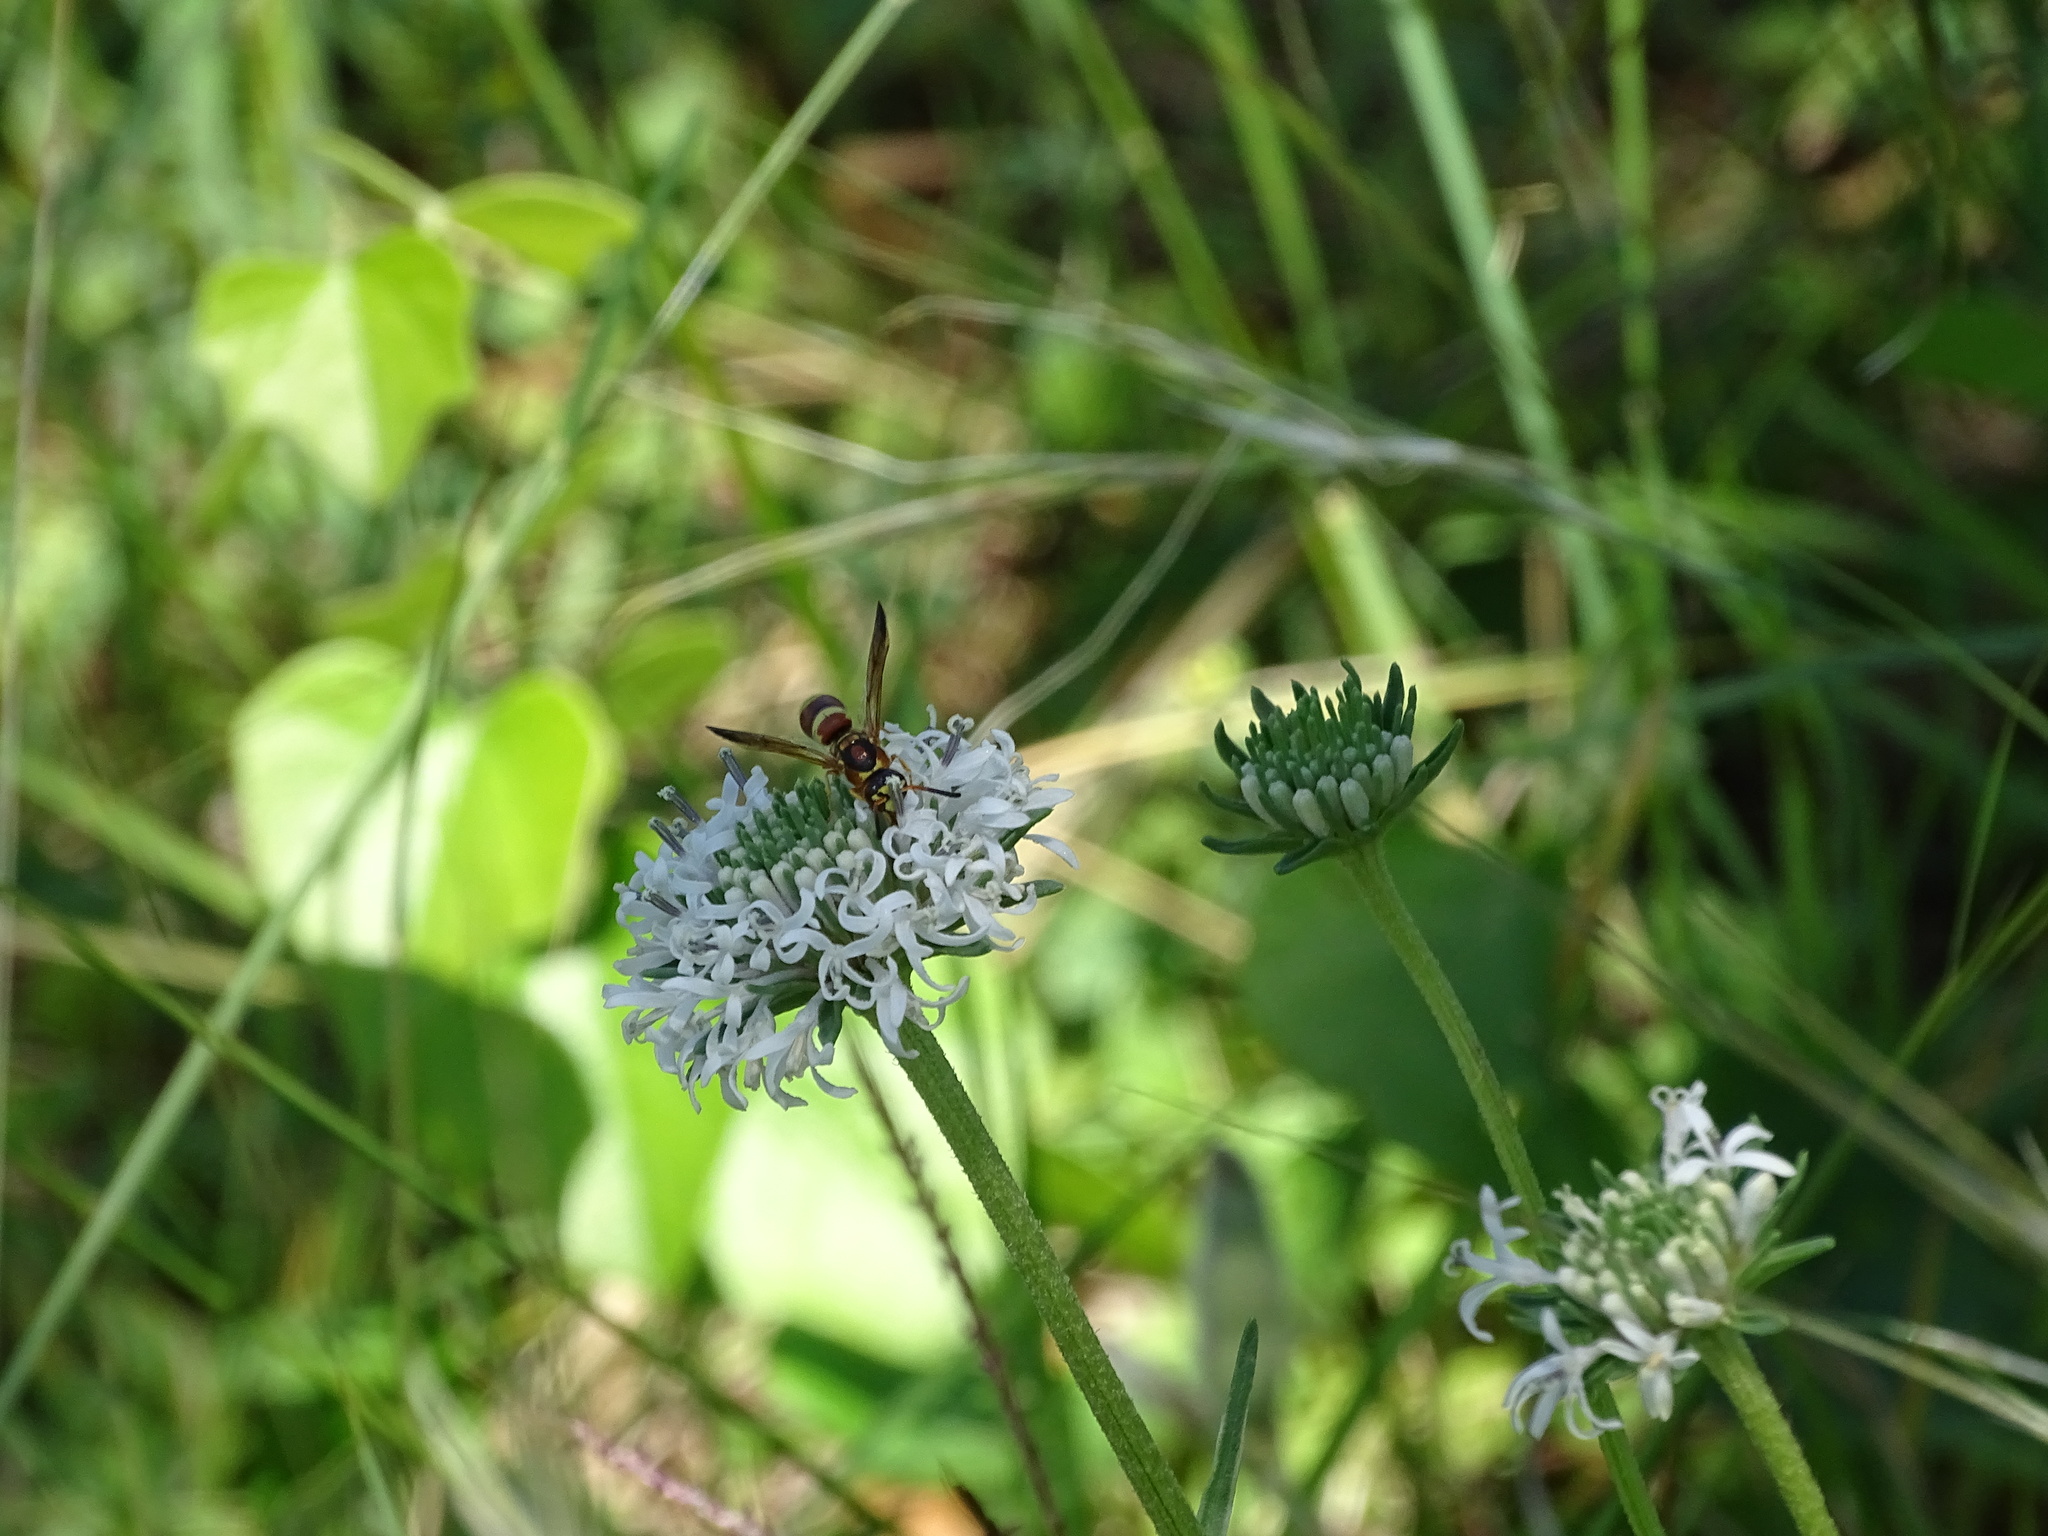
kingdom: Animalia
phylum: Arthropoda
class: Insecta
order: Hymenoptera
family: Eumenidae
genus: Euodynerus
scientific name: Euodynerus pratensis
